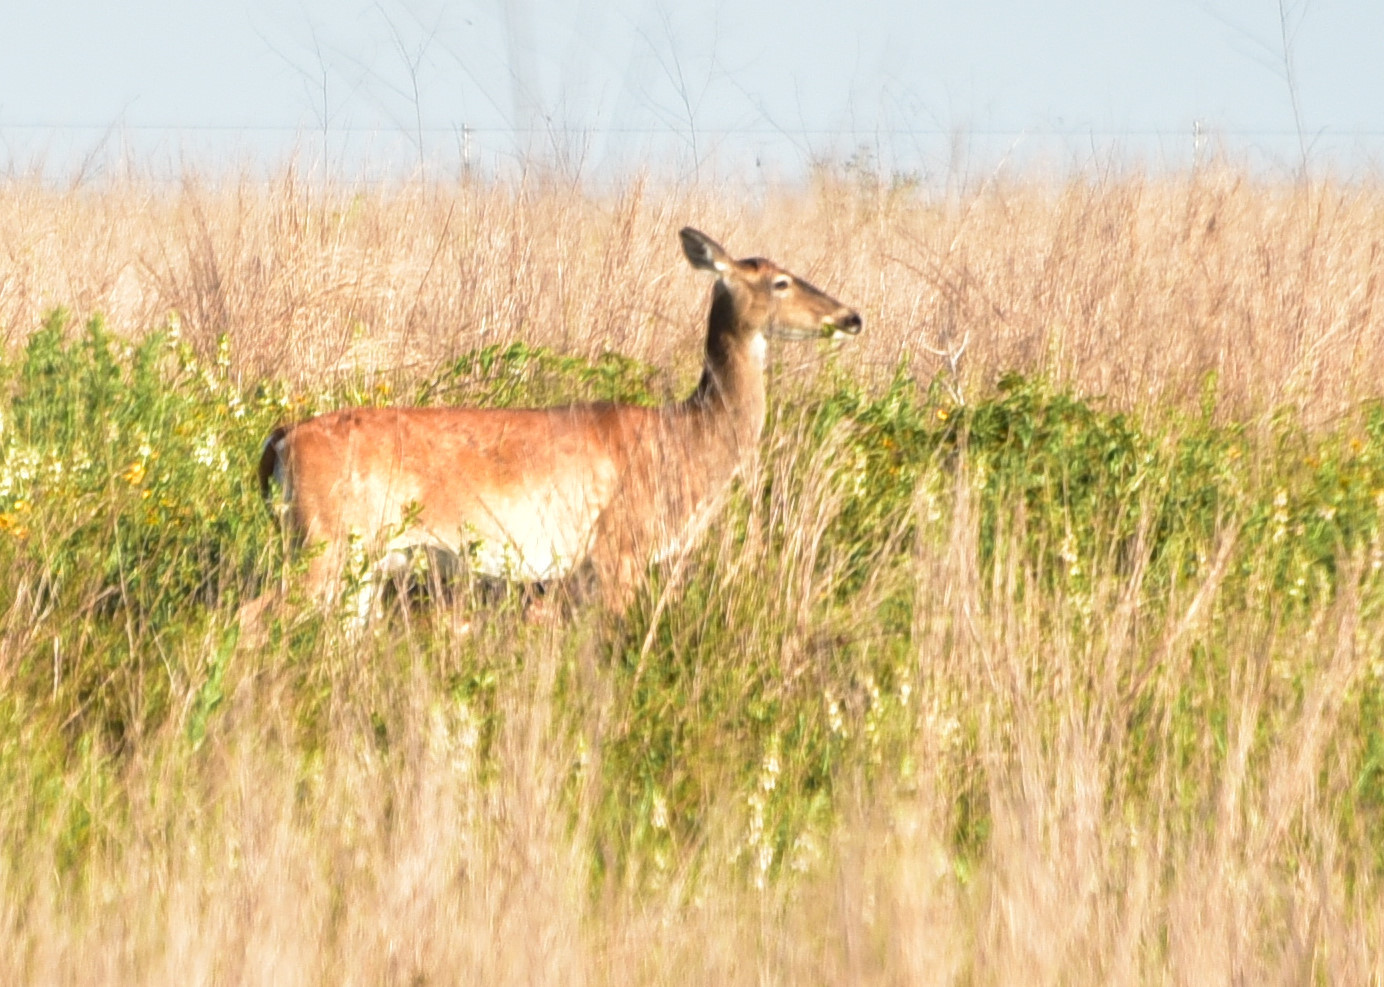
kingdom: Animalia
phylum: Chordata
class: Mammalia
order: Artiodactyla
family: Cervidae
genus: Odocoileus
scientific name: Odocoileus virginianus
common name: White-tailed deer
